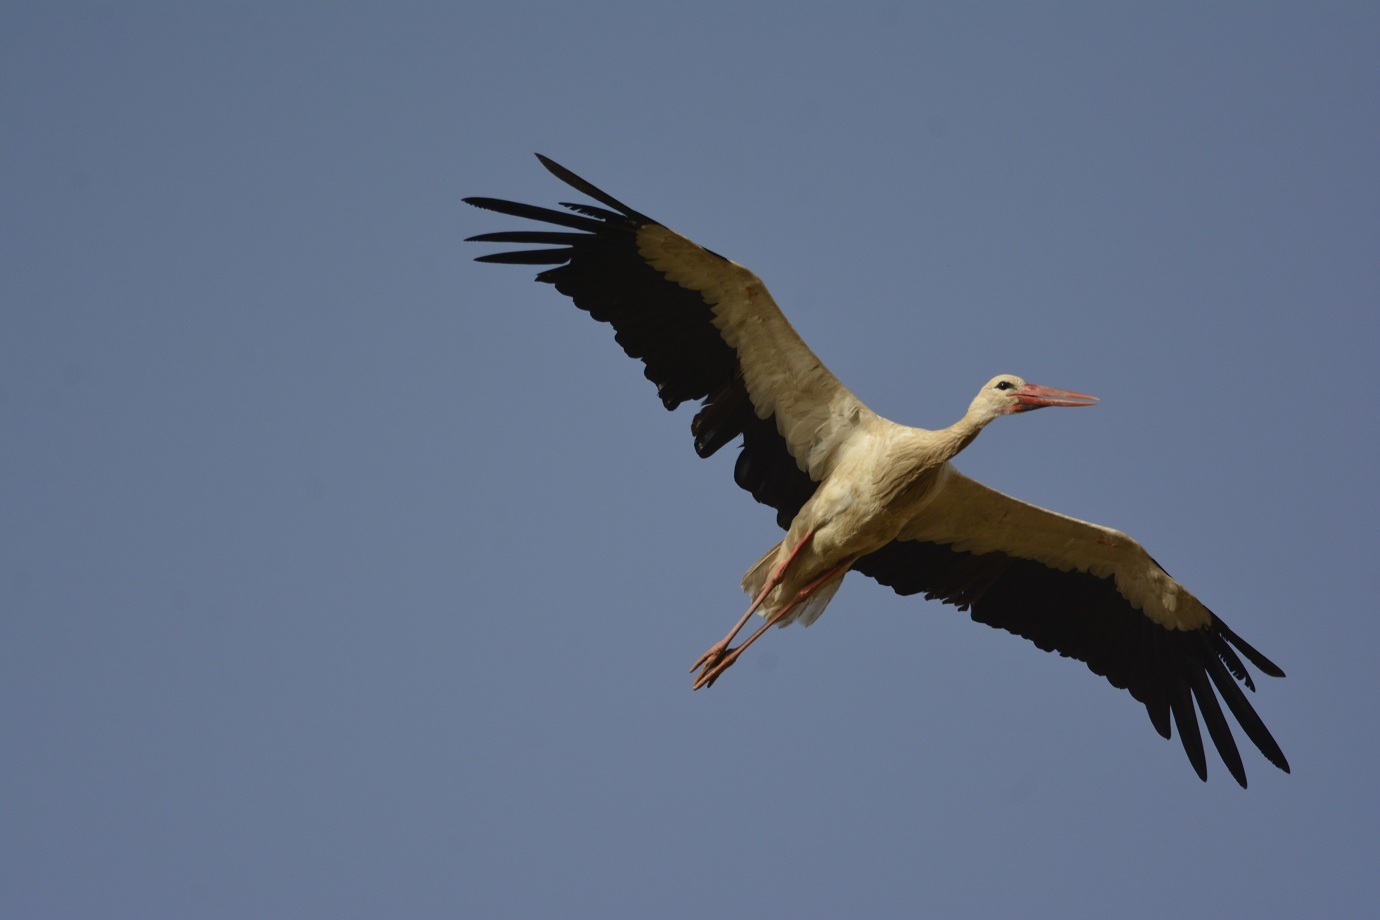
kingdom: Animalia
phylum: Chordata
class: Aves
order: Ciconiiformes
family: Ciconiidae
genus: Ciconia
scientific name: Ciconia ciconia
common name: White stork
